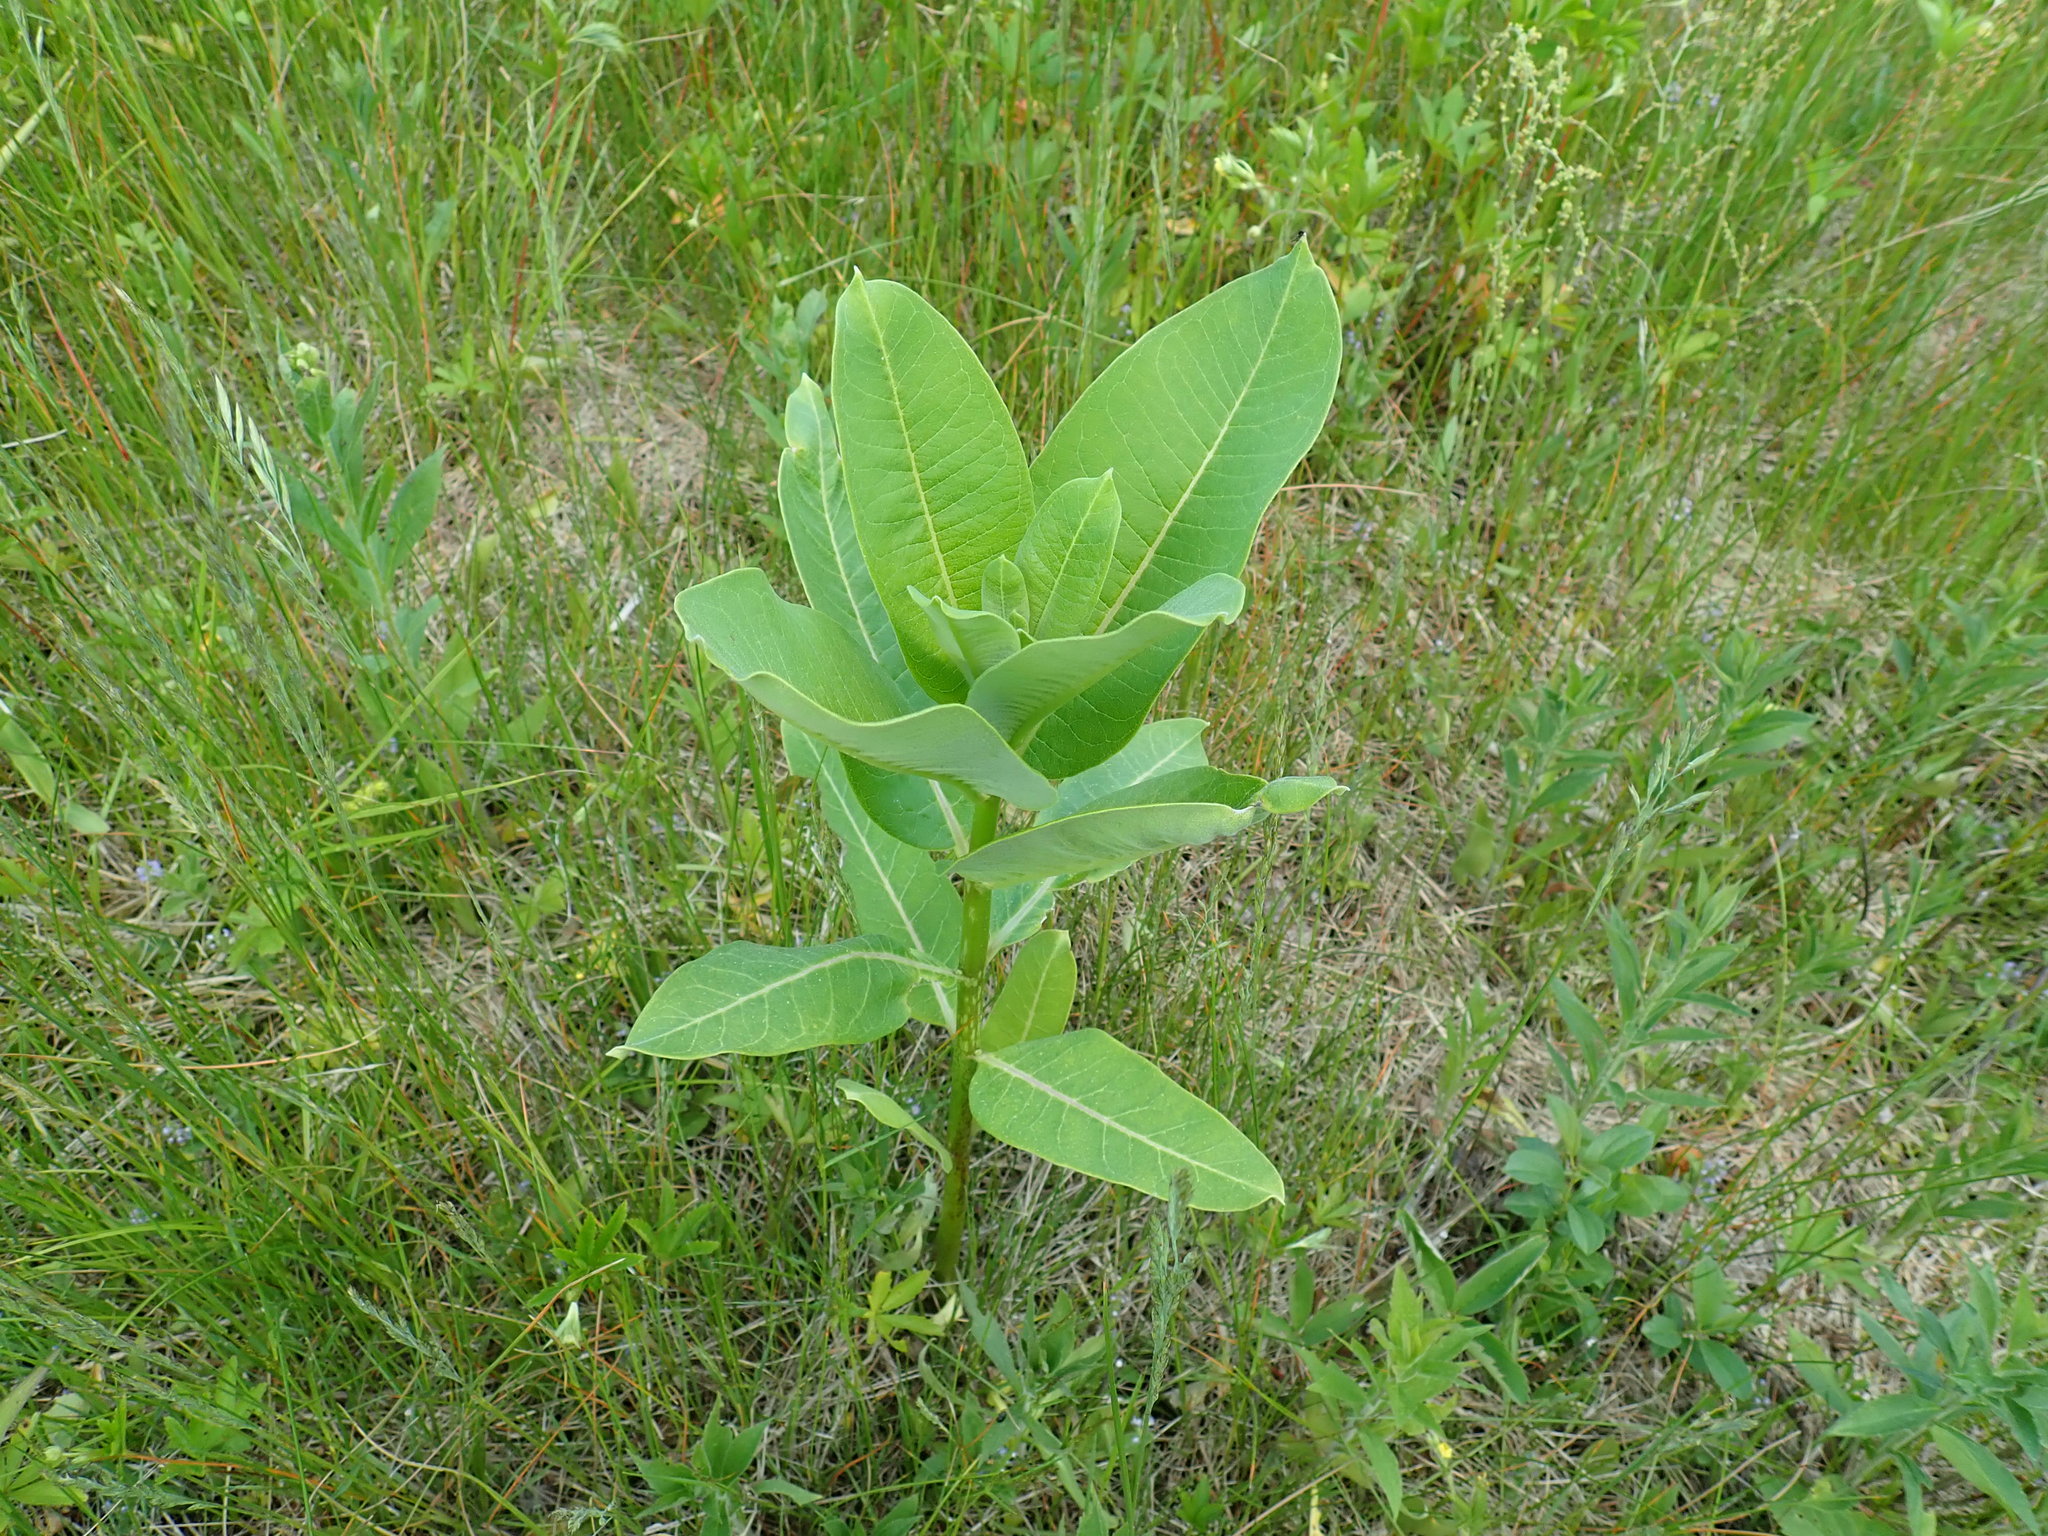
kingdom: Plantae
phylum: Tracheophyta
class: Magnoliopsida
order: Gentianales
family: Apocynaceae
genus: Asclepias
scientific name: Asclepias syriaca
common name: Common milkweed
